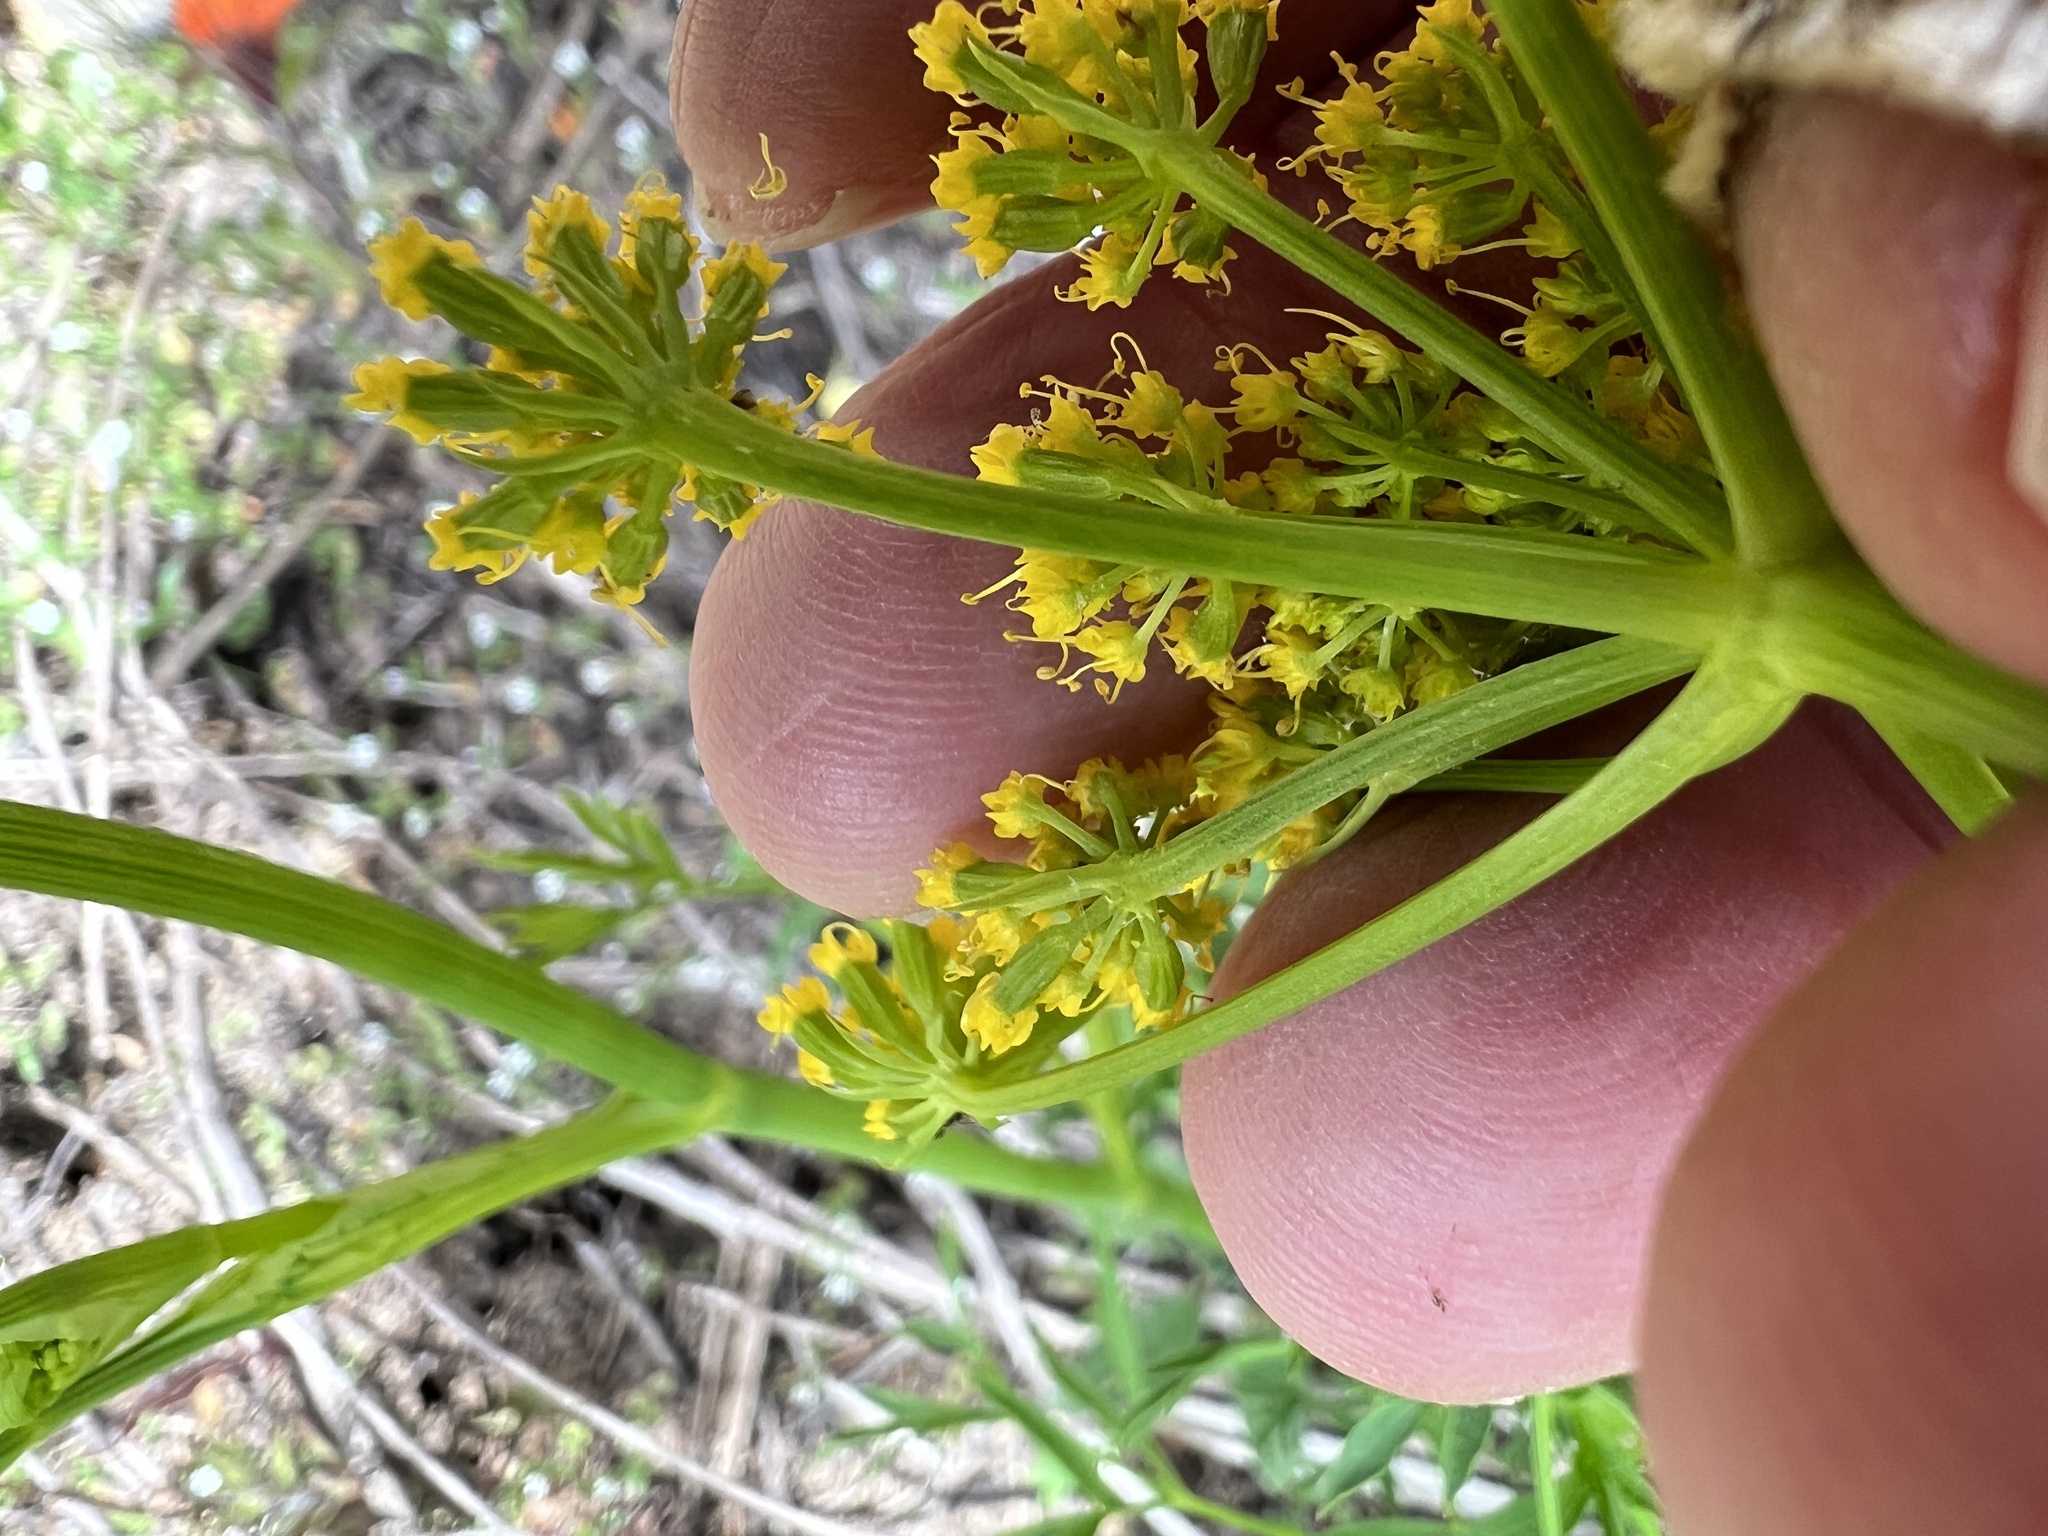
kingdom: Plantae
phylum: Tracheophyta
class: Magnoliopsida
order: Apiales
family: Apiaceae
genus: Lomatium
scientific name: Lomatium brandegeei
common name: Brandegee's desert-parsley
